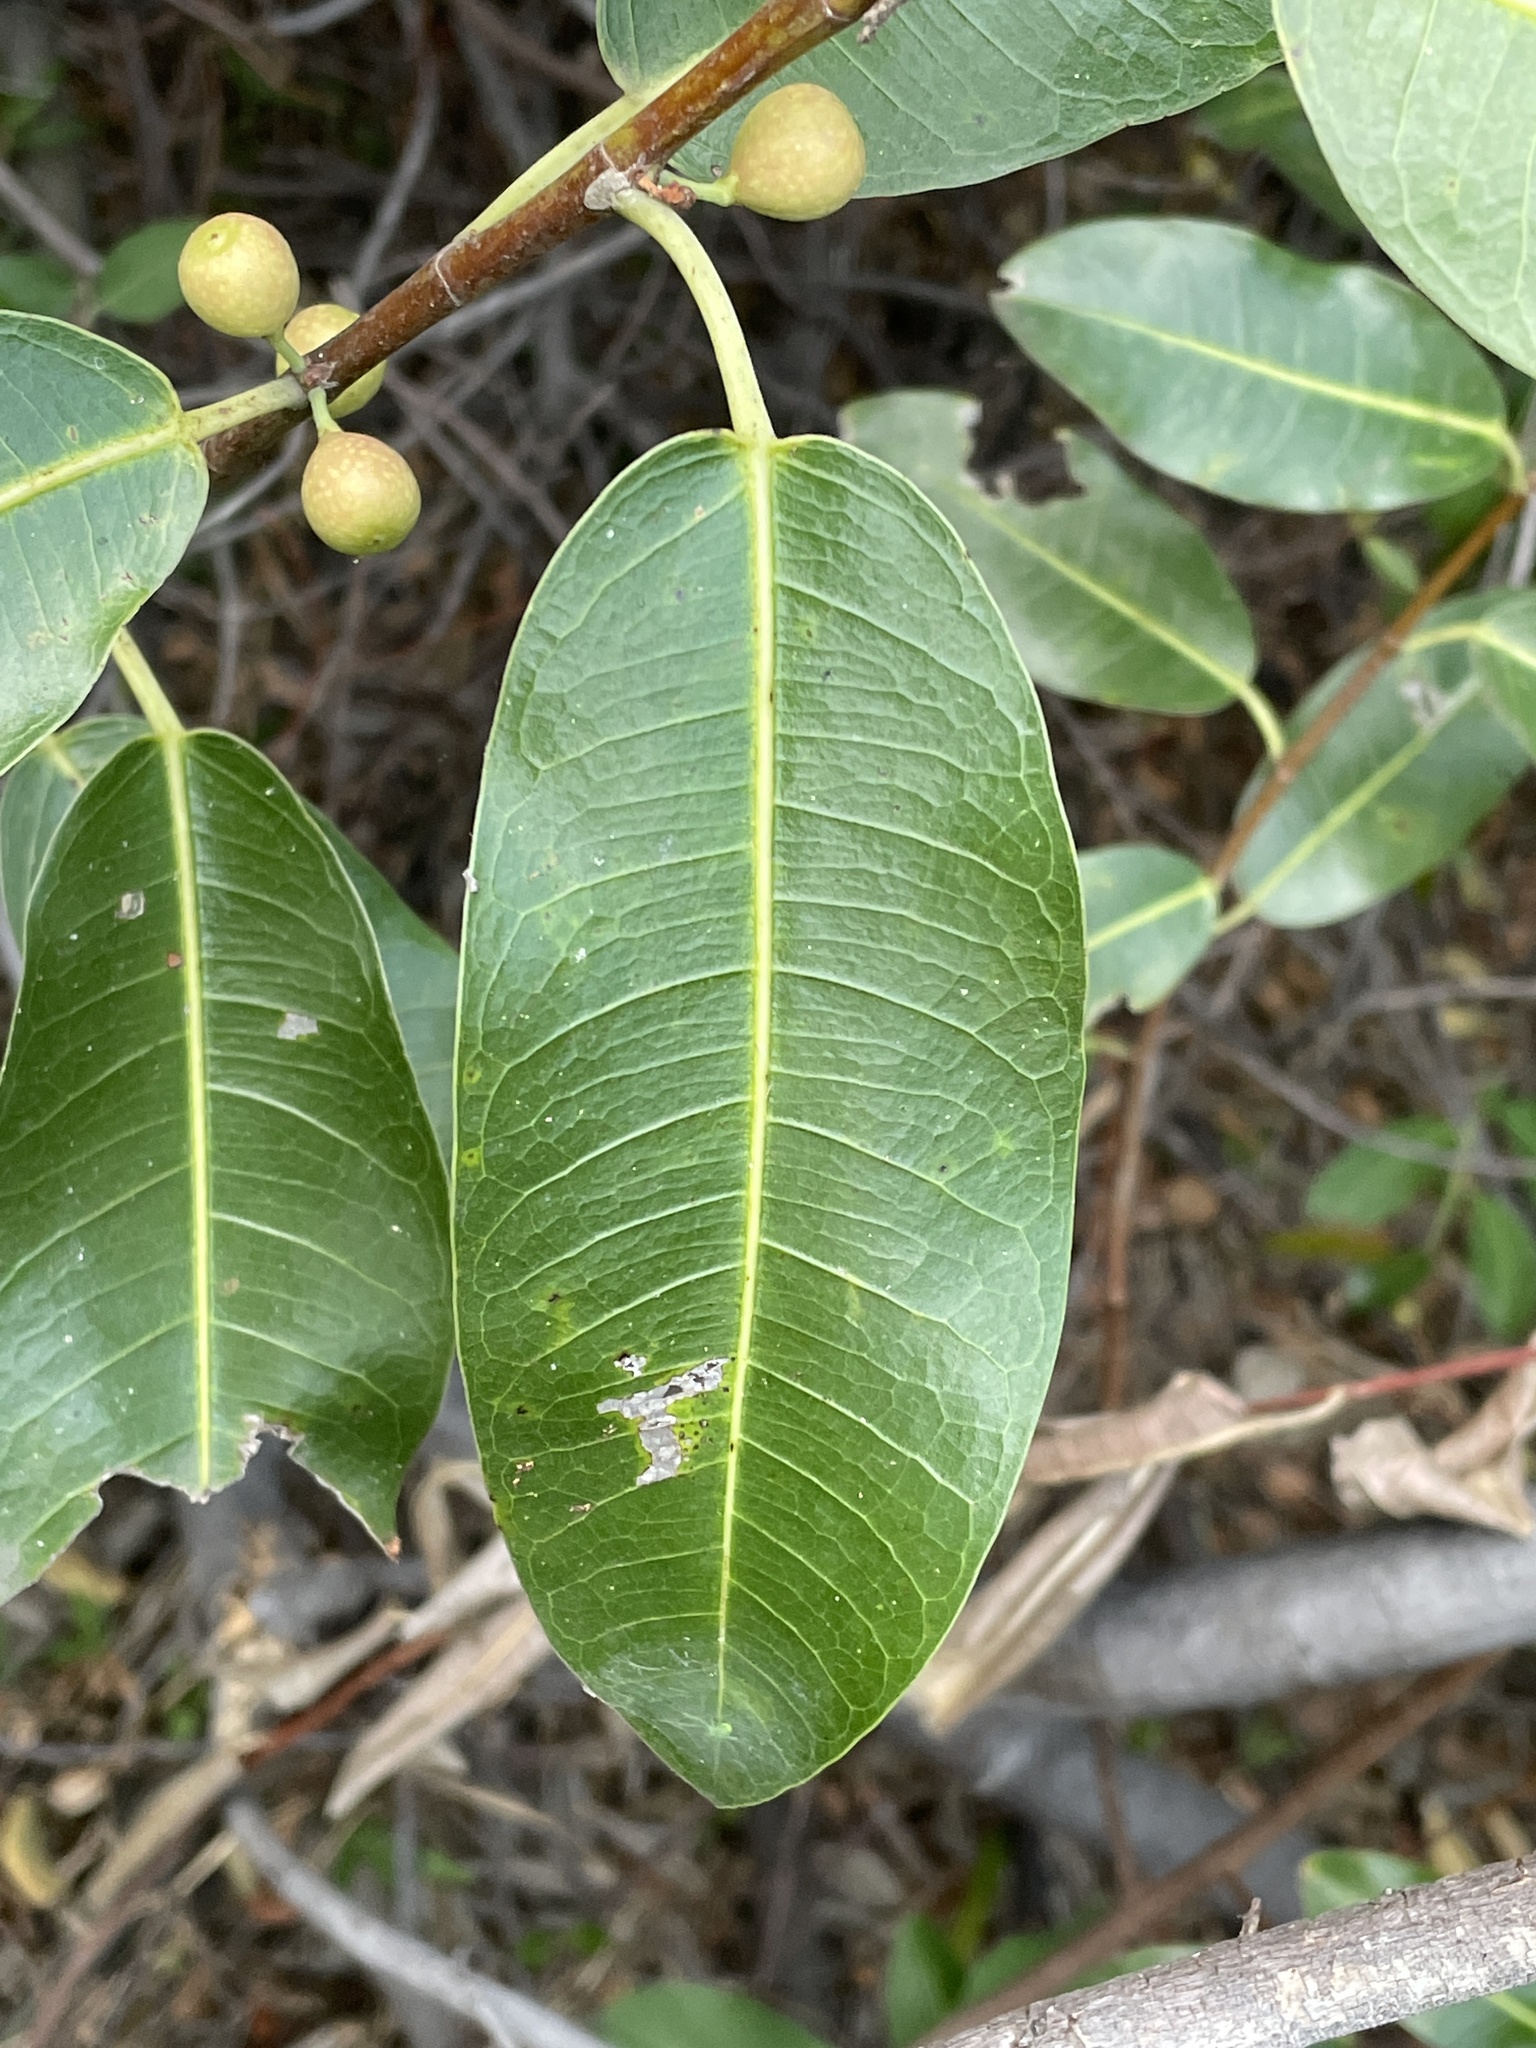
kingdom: Plantae
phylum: Tracheophyta
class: Magnoliopsida
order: Rosales
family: Moraceae
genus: Ficus
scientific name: Ficus verruculosa
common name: Water fig
